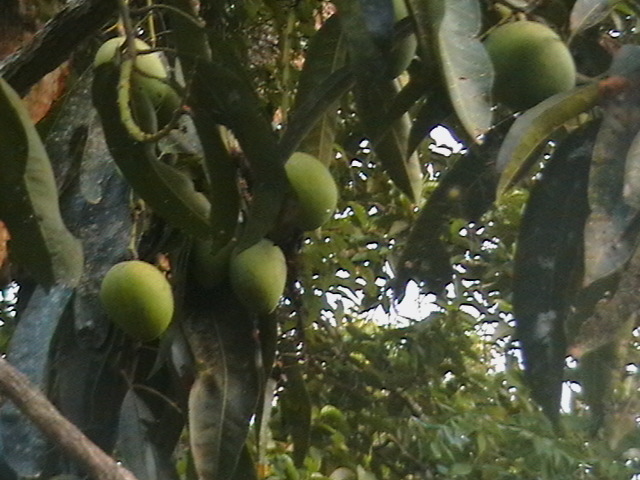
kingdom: Plantae
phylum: Tracheophyta
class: Magnoliopsida
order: Sapindales
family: Anacardiaceae
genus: Mangifera
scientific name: Mangifera indica
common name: Mango
